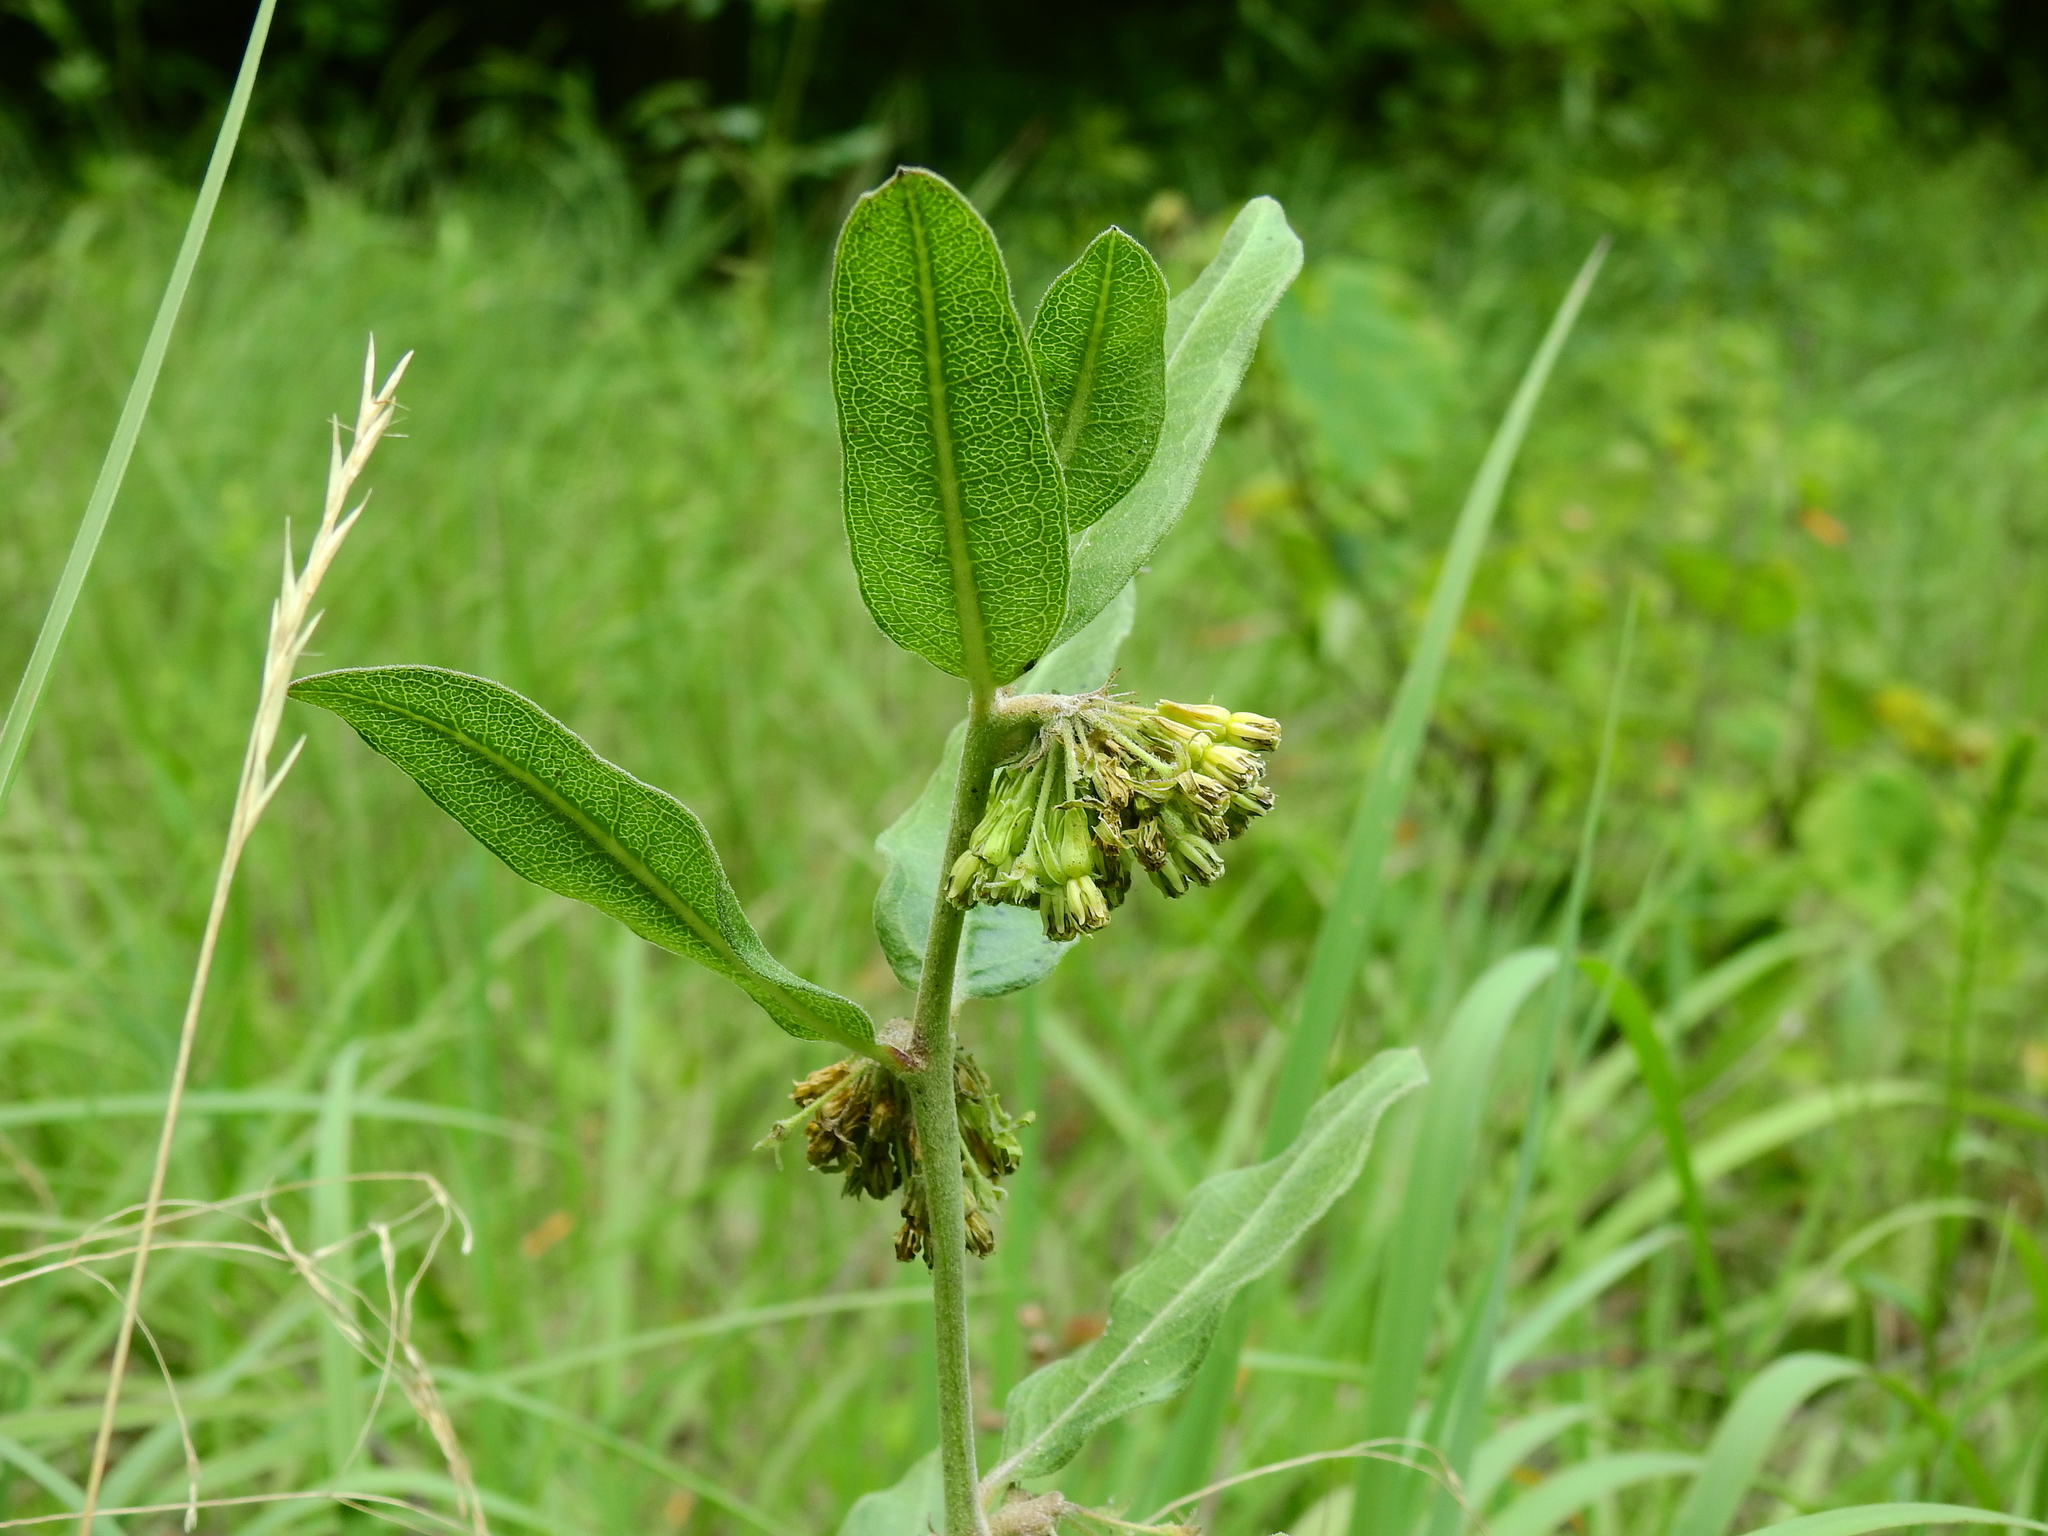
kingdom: Plantae
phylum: Tracheophyta
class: Magnoliopsida
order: Gentianales
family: Apocynaceae
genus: Asclepias
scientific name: Asclepias viridiflora
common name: Green comet milkweed
